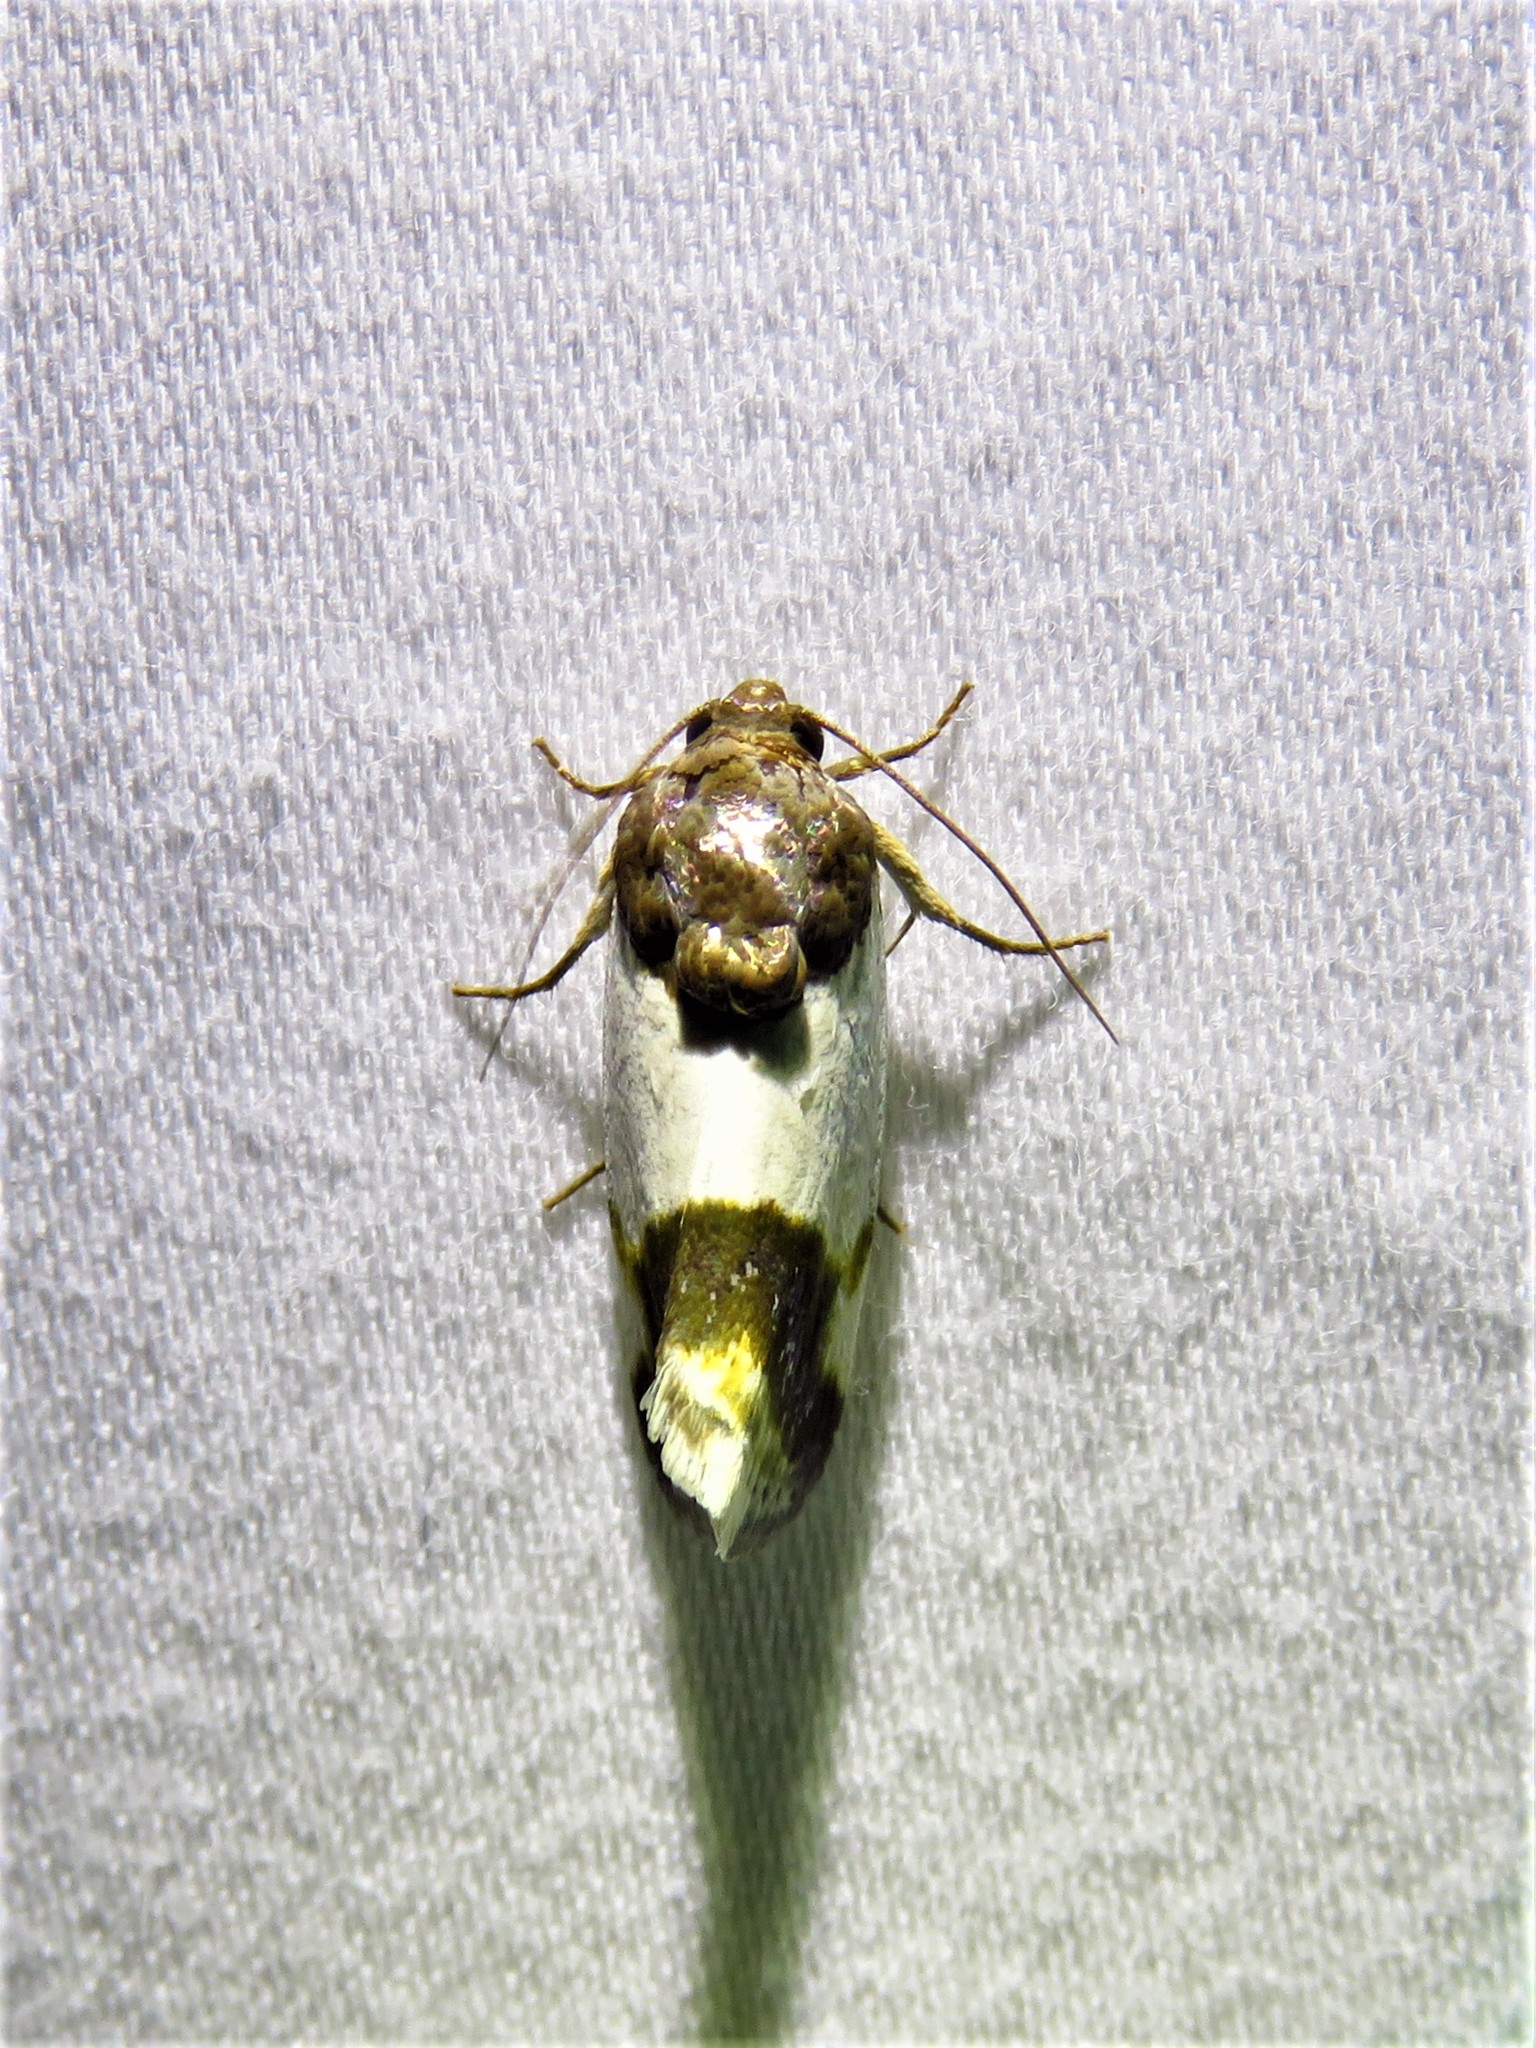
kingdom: Animalia
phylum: Arthropoda
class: Insecta
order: Lepidoptera
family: Noctuidae
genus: Acontia
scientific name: Acontia Tarache lactipennis
